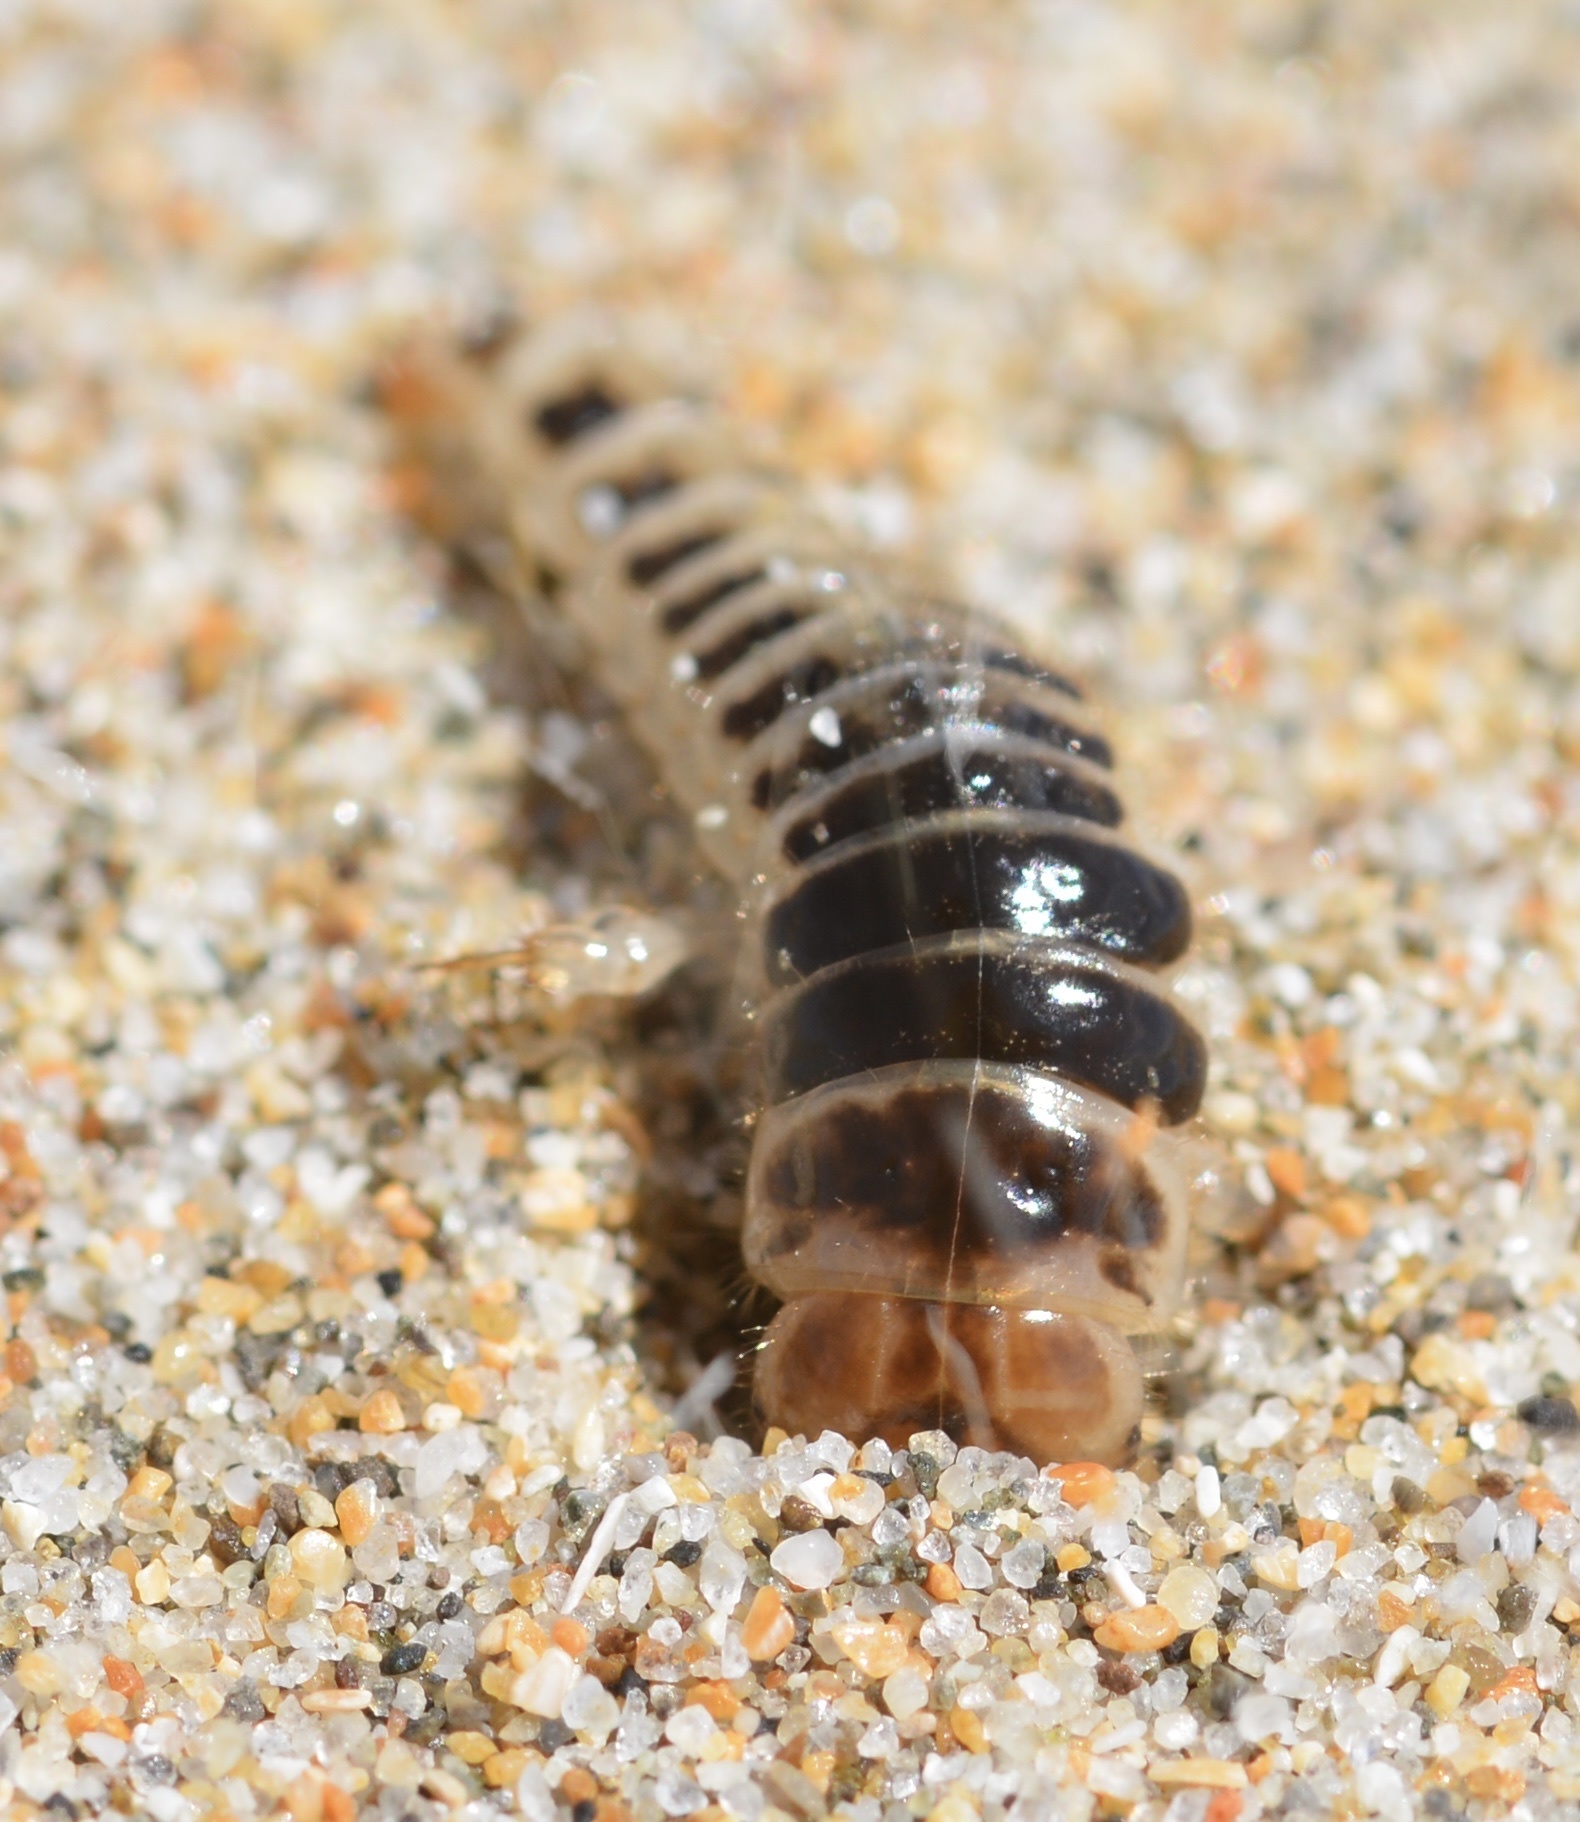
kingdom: Animalia
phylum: Arthropoda
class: Insecta
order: Coleoptera
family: Staphylinidae
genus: Thinopinus
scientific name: Thinopinus pictus
